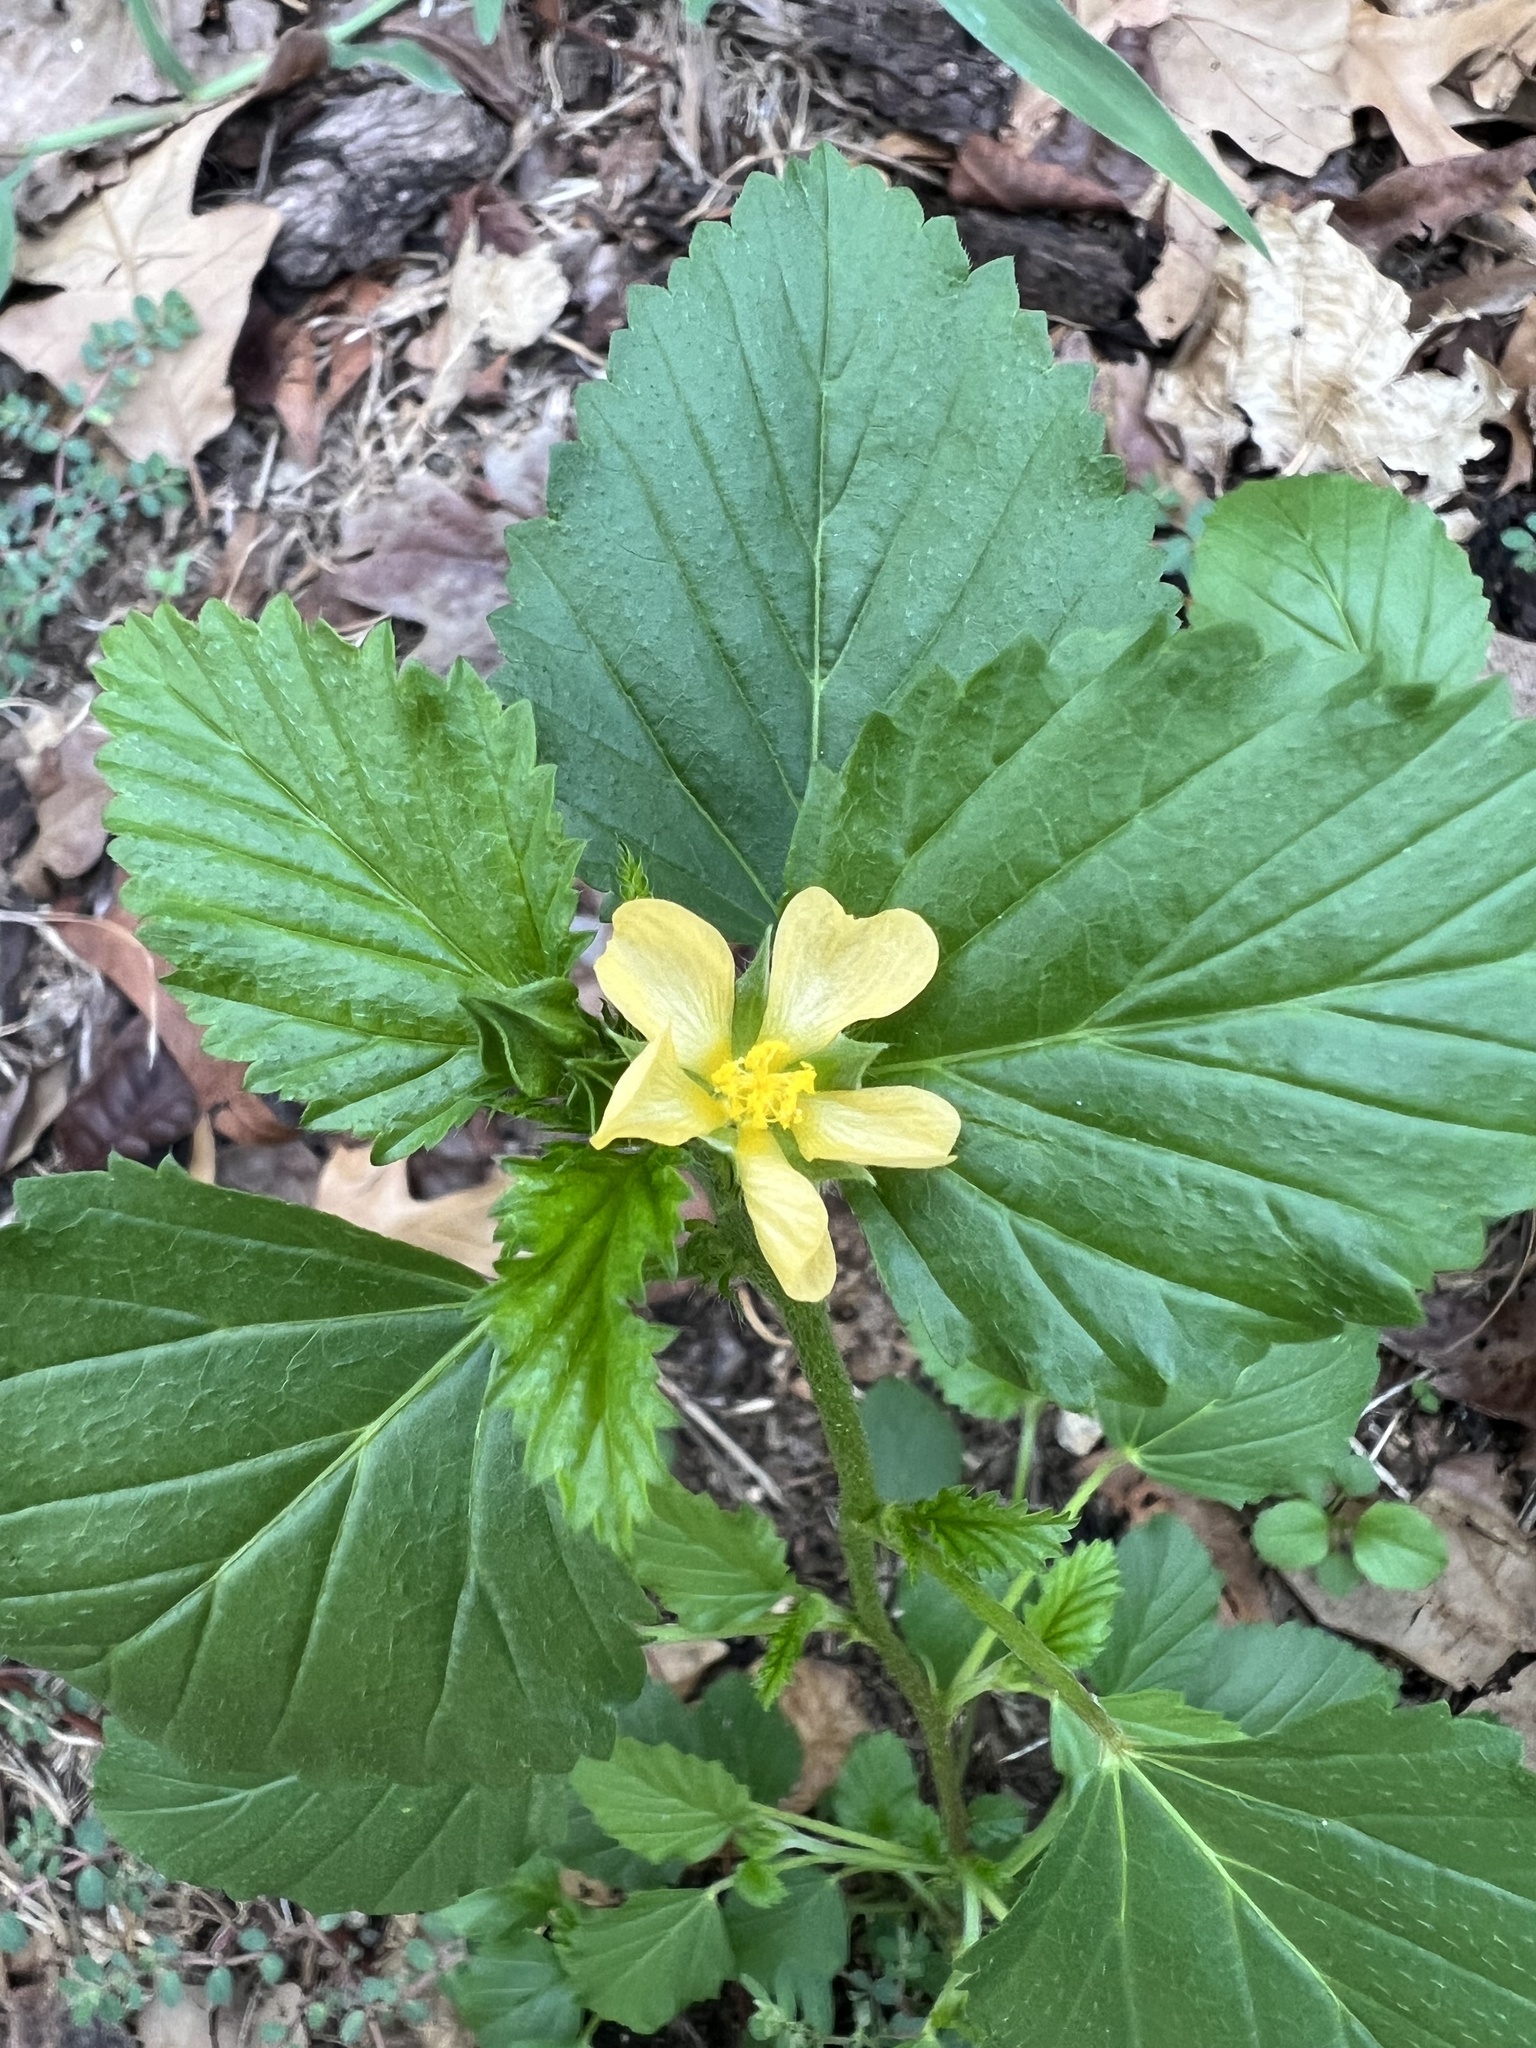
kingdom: Plantae
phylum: Tracheophyta
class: Magnoliopsida
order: Malvales
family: Malvaceae
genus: Malvastrum
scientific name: Malvastrum coromandelianum
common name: Threelobe false mallow
